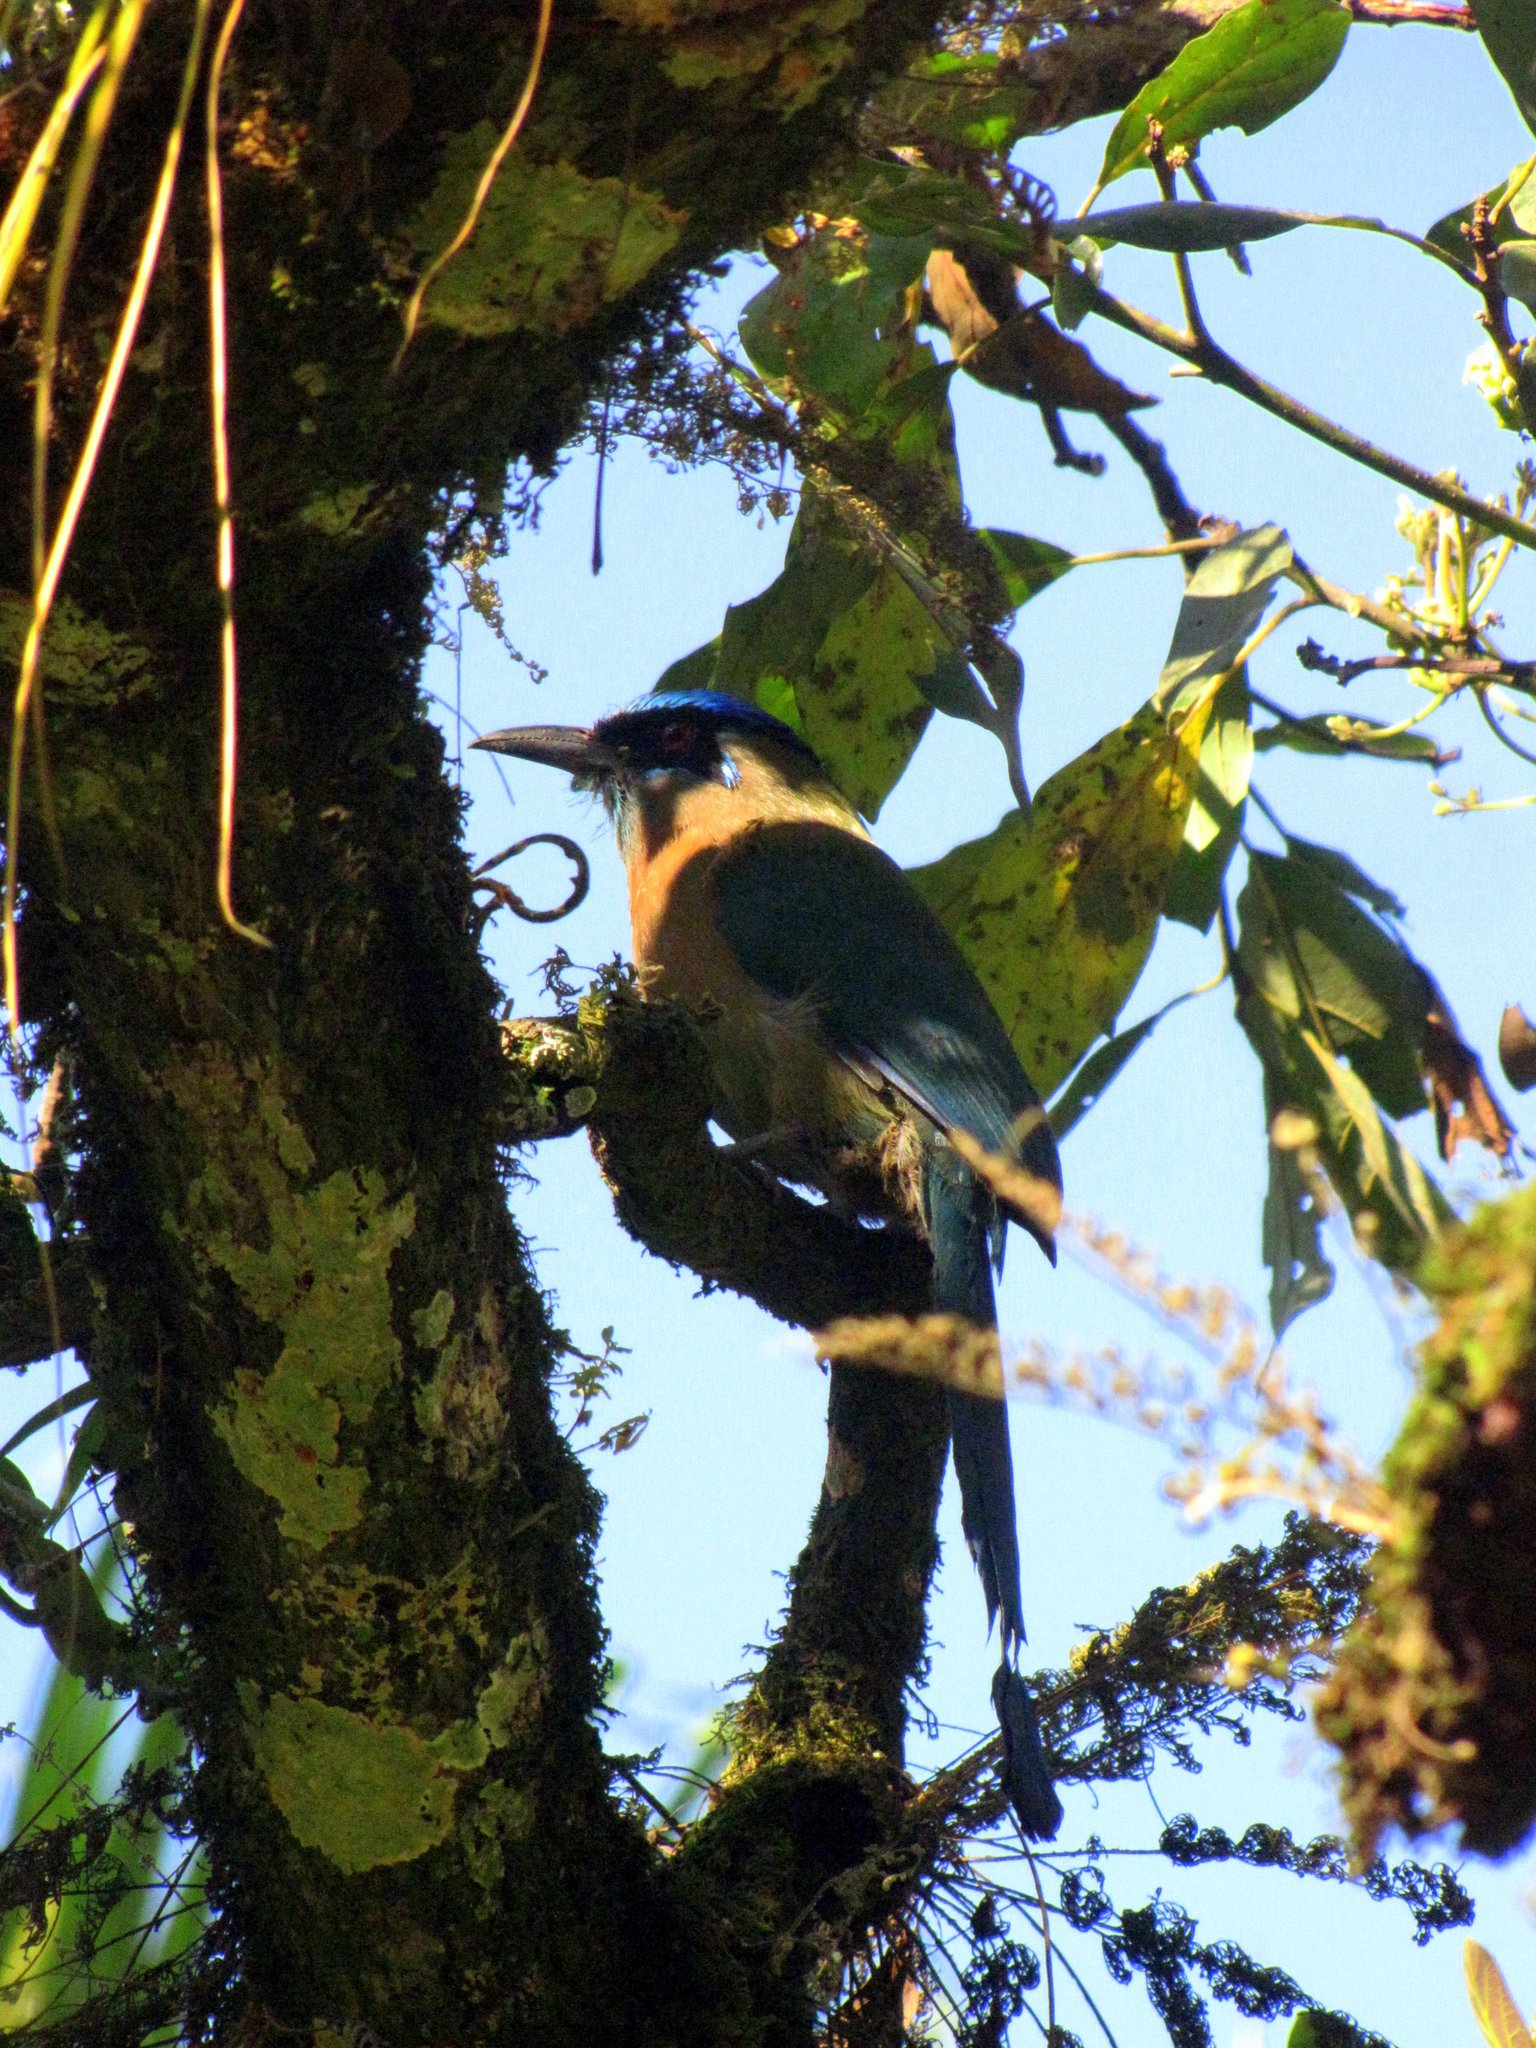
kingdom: Animalia
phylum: Chordata
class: Aves
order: Coraciiformes
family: Momotidae
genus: Momotus
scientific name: Momotus lessonii
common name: Lesson's motmot
